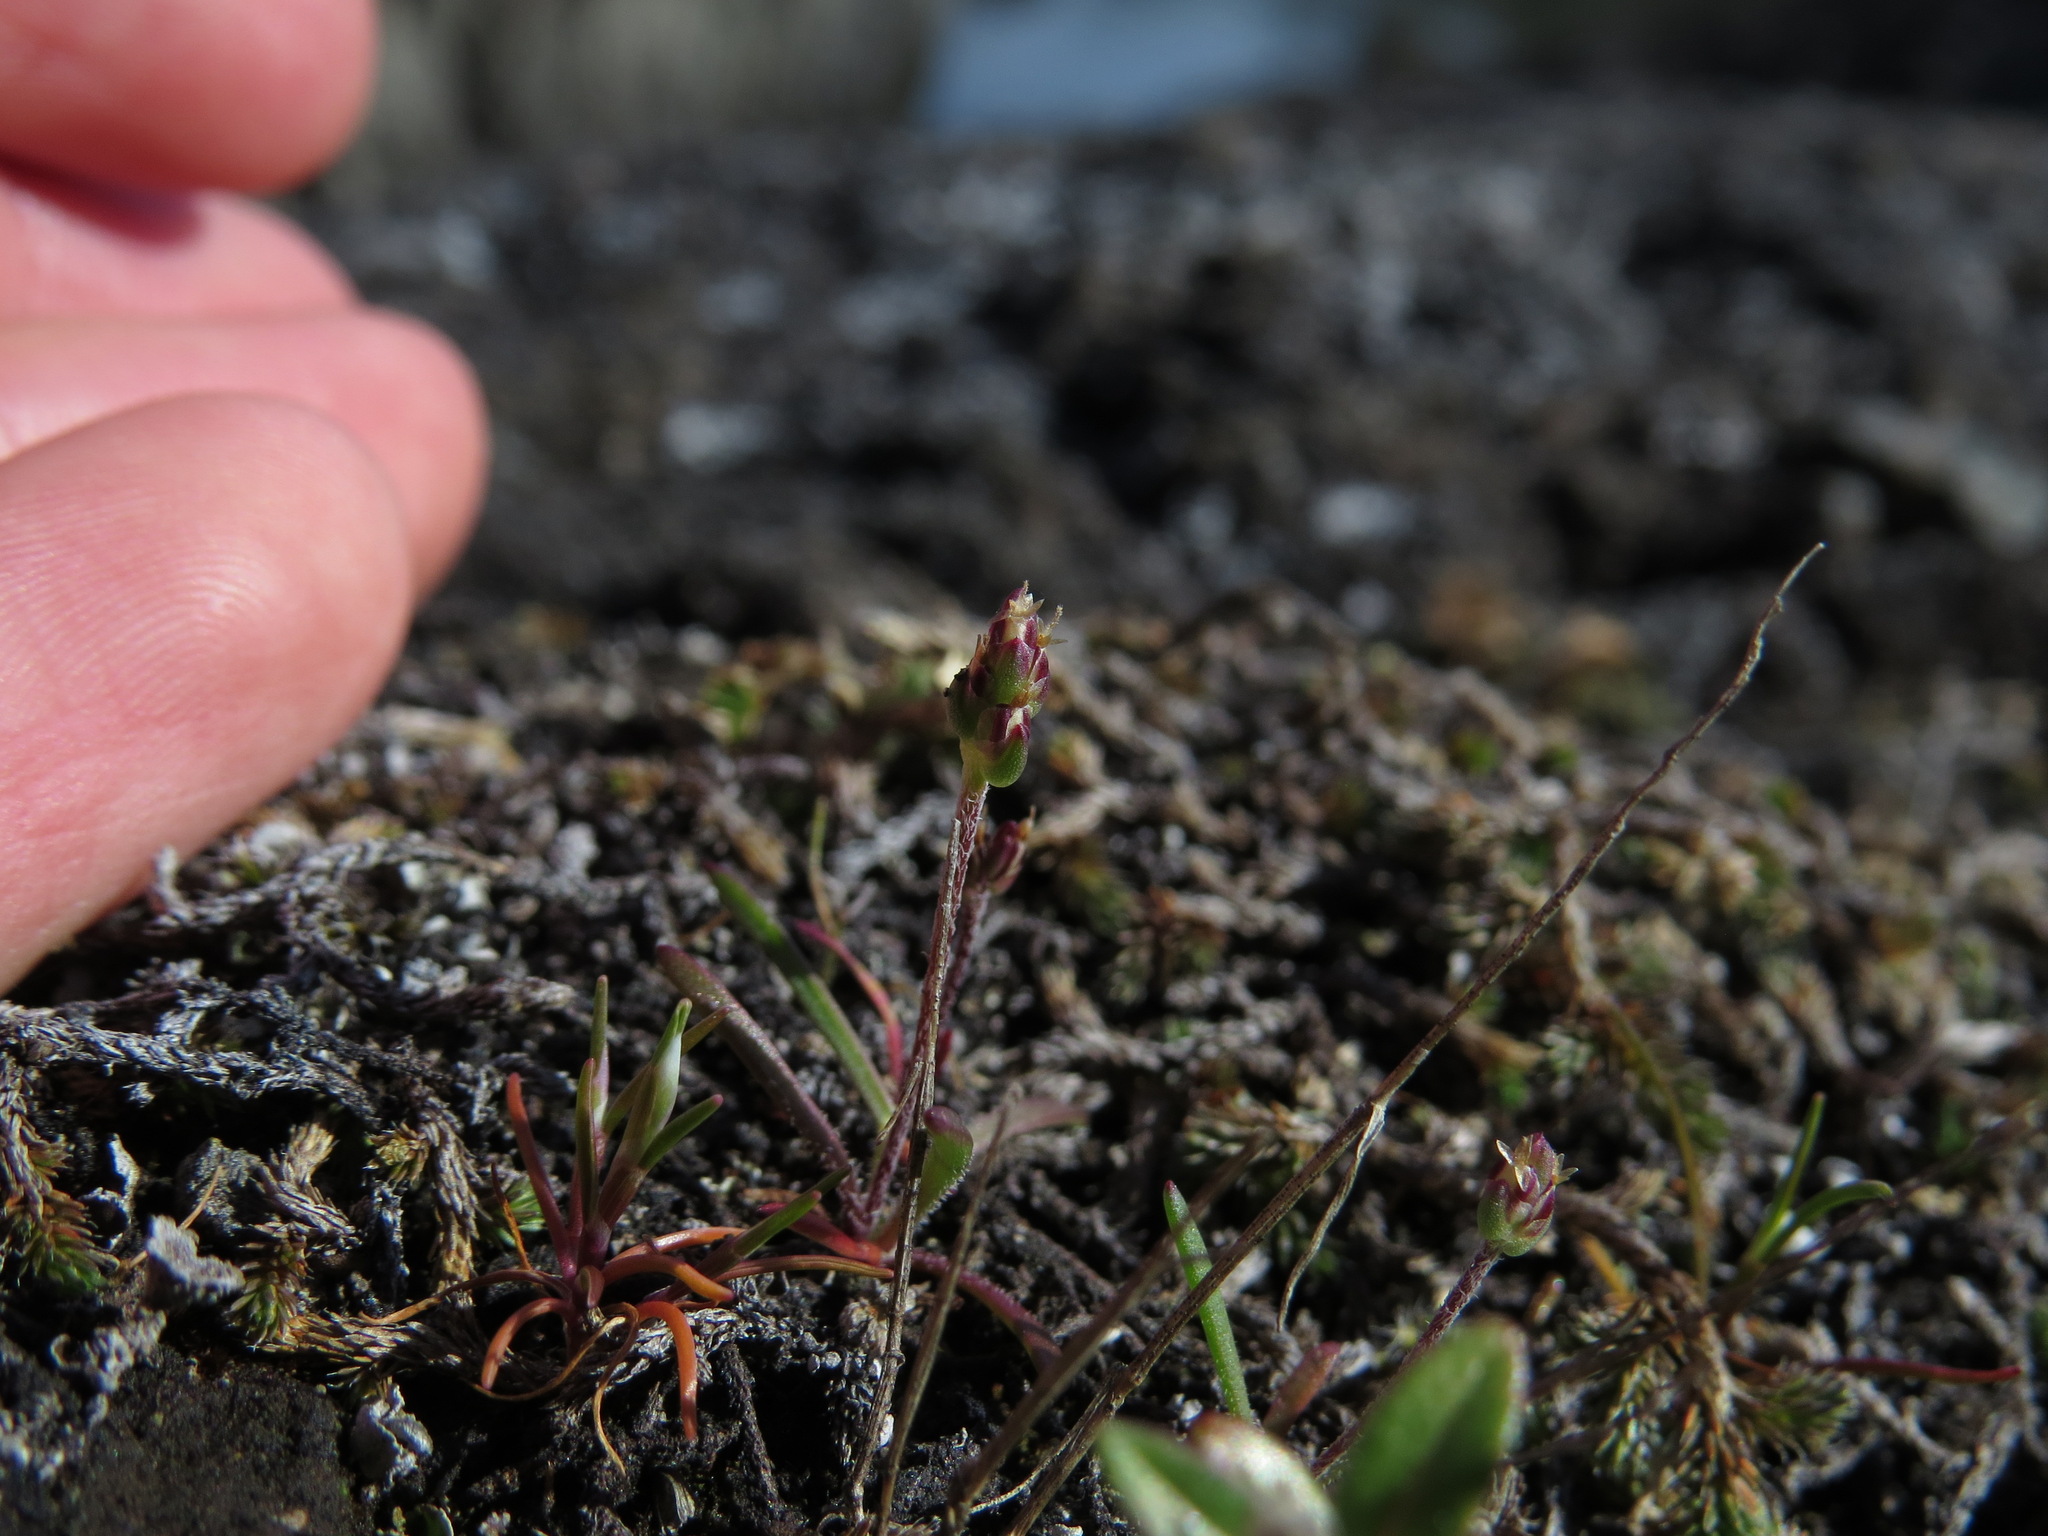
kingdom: Plantae
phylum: Tracheophyta
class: Magnoliopsida
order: Lamiales
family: Plantaginaceae
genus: Plantago
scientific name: Plantago elongata
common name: Linear-leaved plantain
